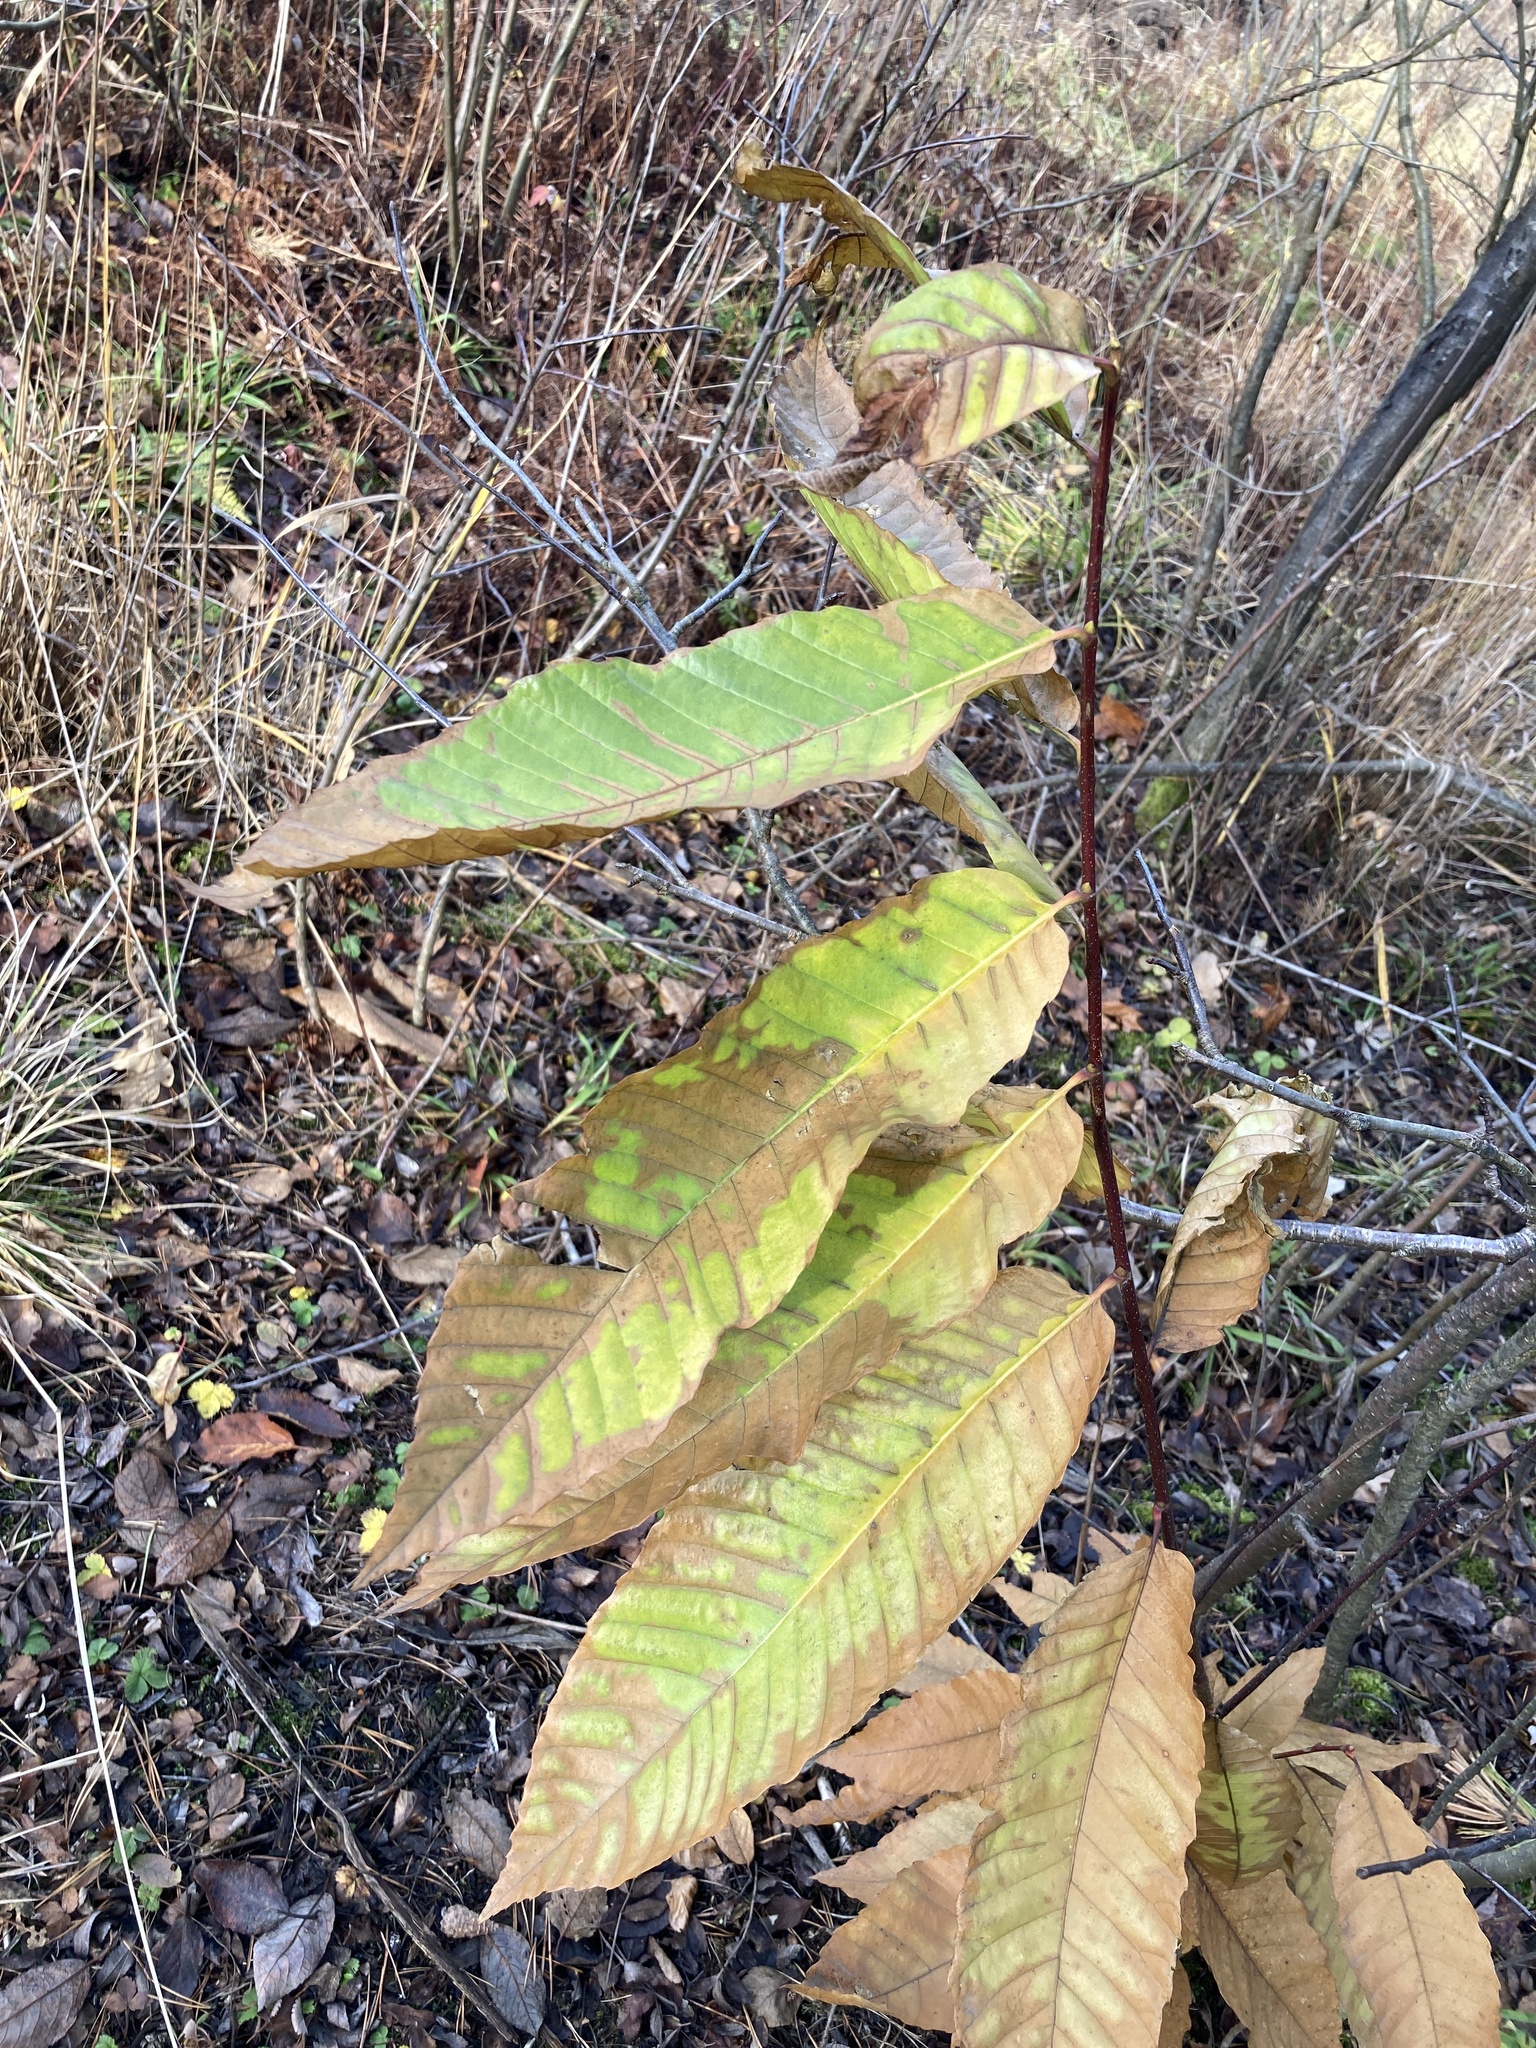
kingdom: Plantae
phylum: Tracheophyta
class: Magnoliopsida
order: Fagales
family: Fagaceae
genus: Castanea
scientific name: Castanea sativa
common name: Sweet chestnut
